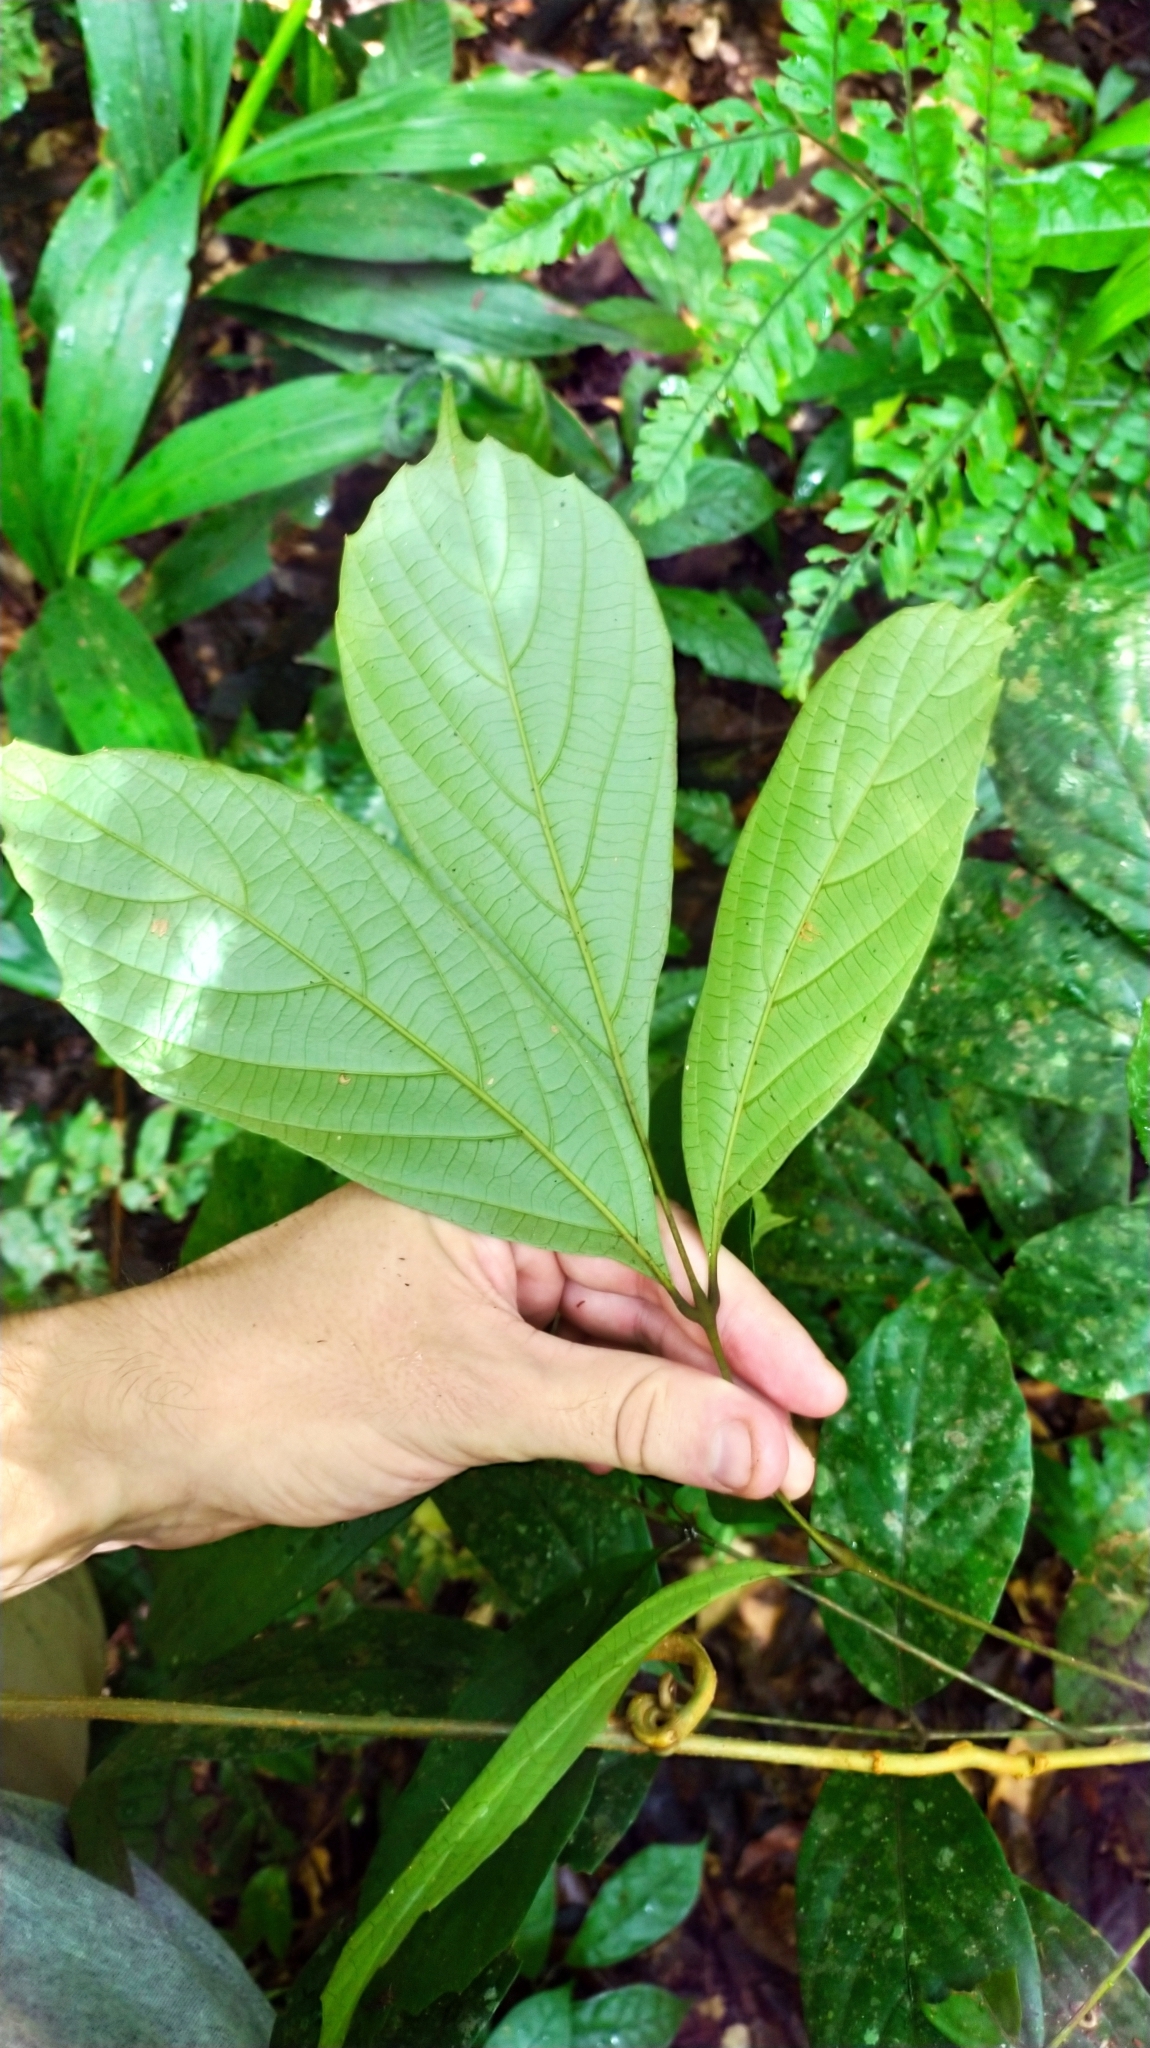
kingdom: Plantae
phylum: Tracheophyta
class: Magnoliopsida
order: Sapindales
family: Sapindaceae
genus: Paullinia
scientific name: Paullinia
